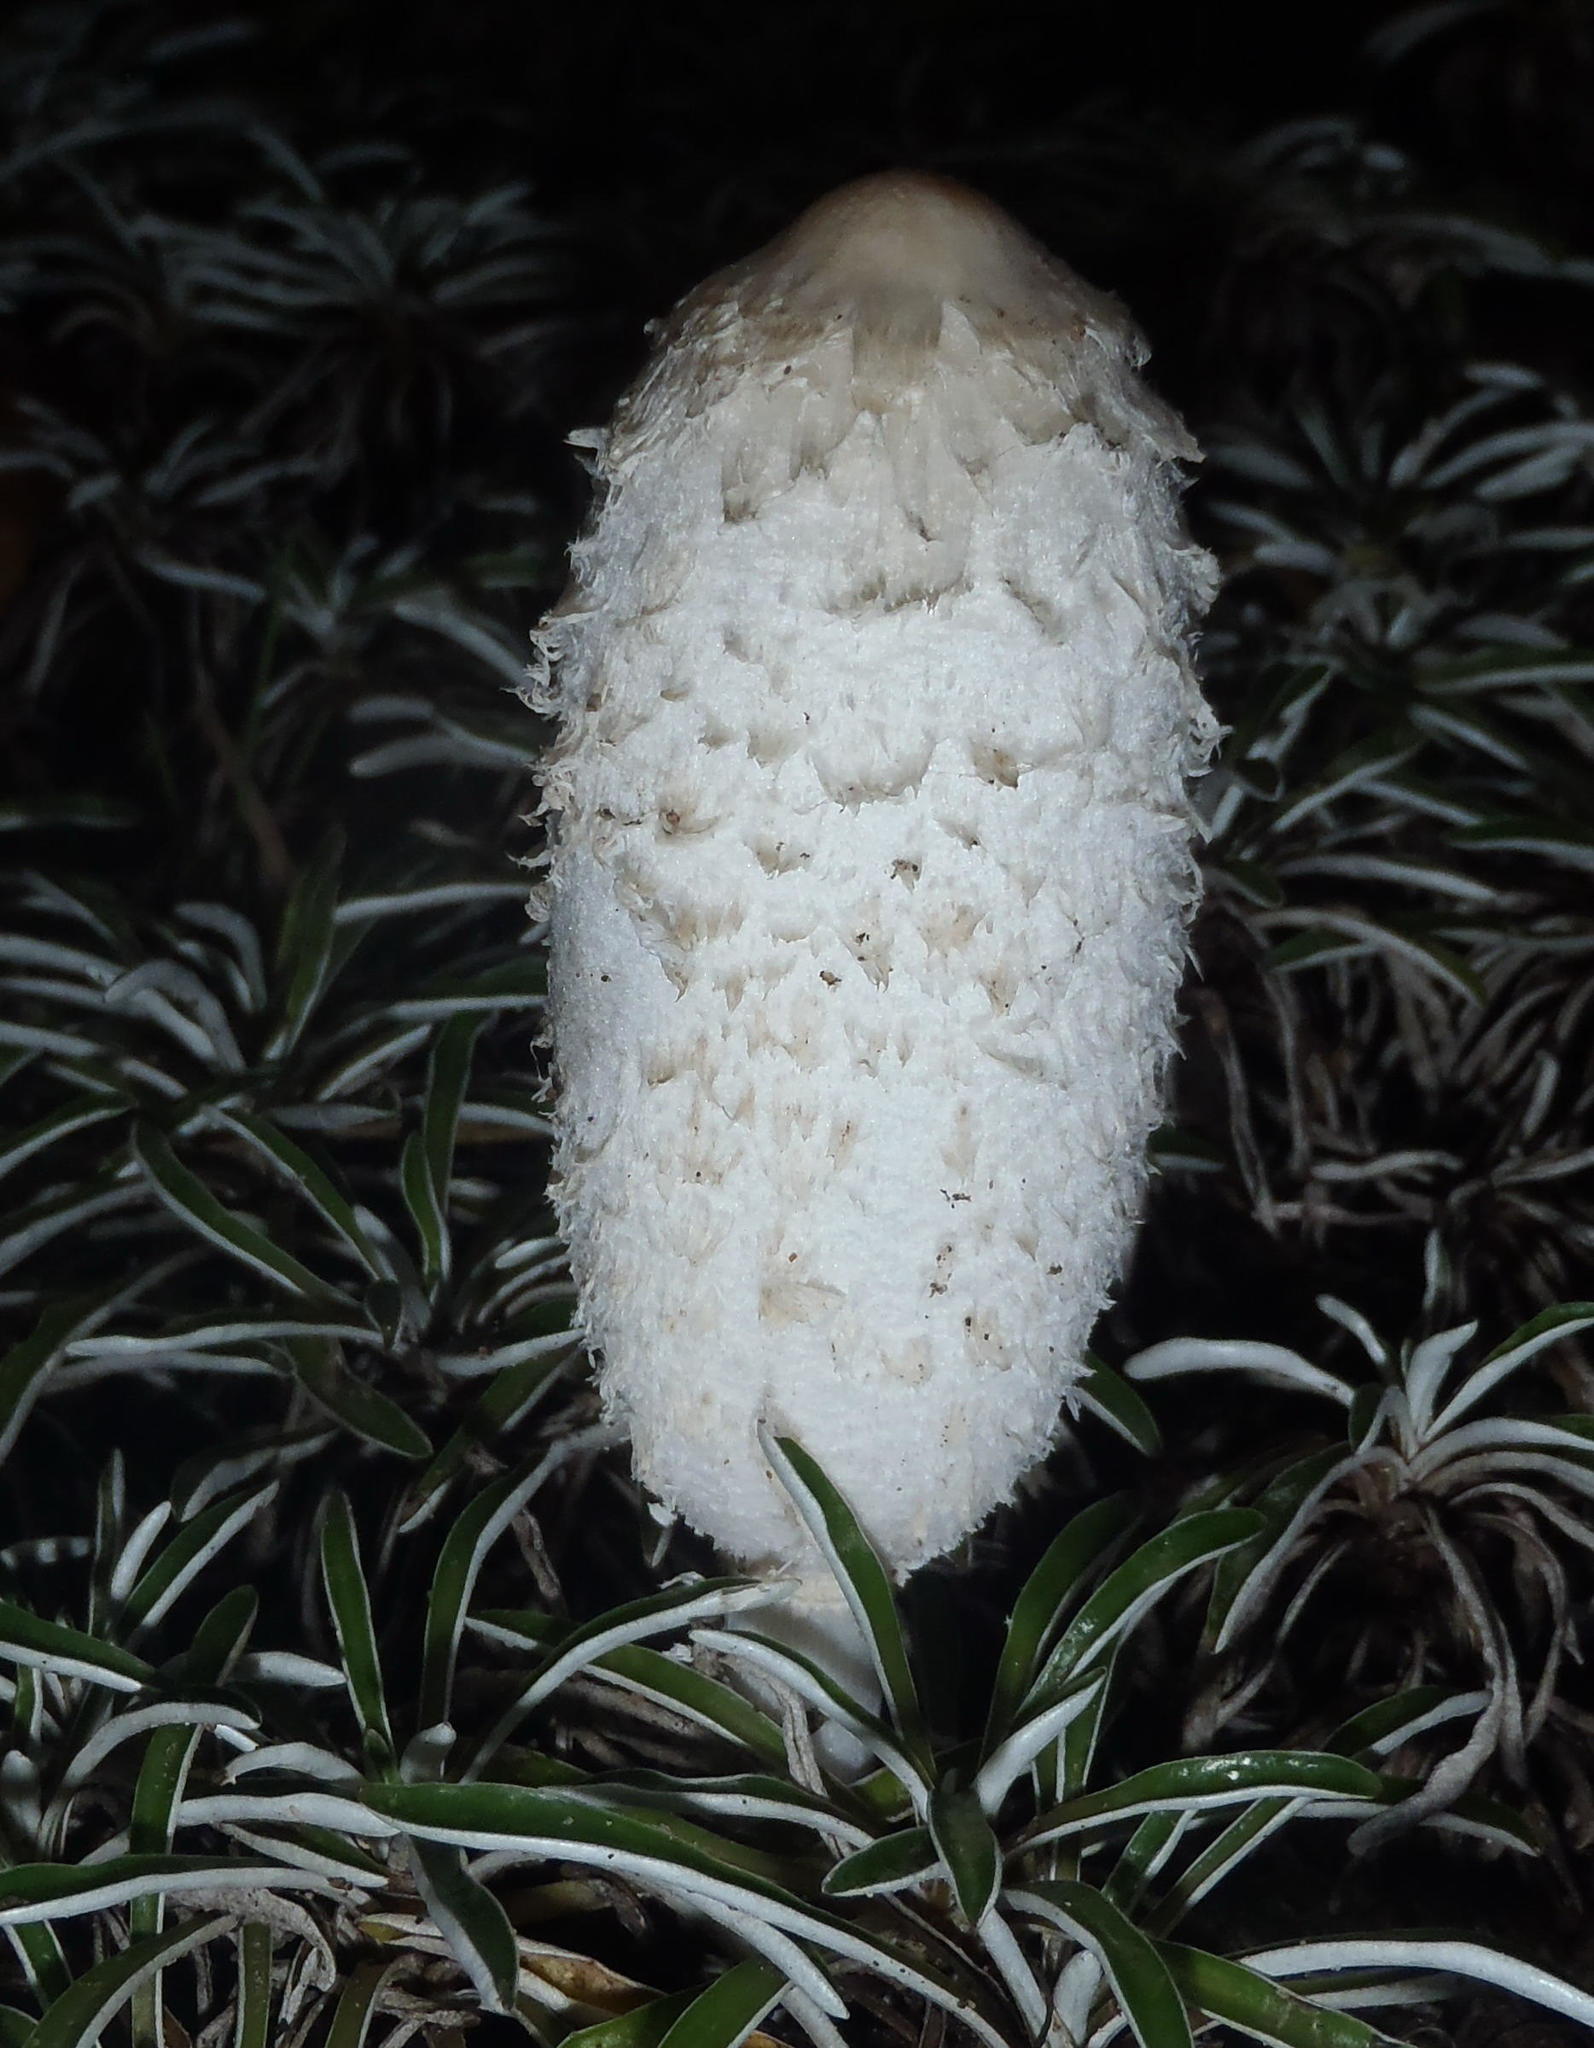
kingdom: Fungi
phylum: Basidiomycota
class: Agaricomycetes
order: Agaricales
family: Agaricaceae
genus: Coprinus
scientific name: Coprinus comatus
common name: Lawyer's wig
